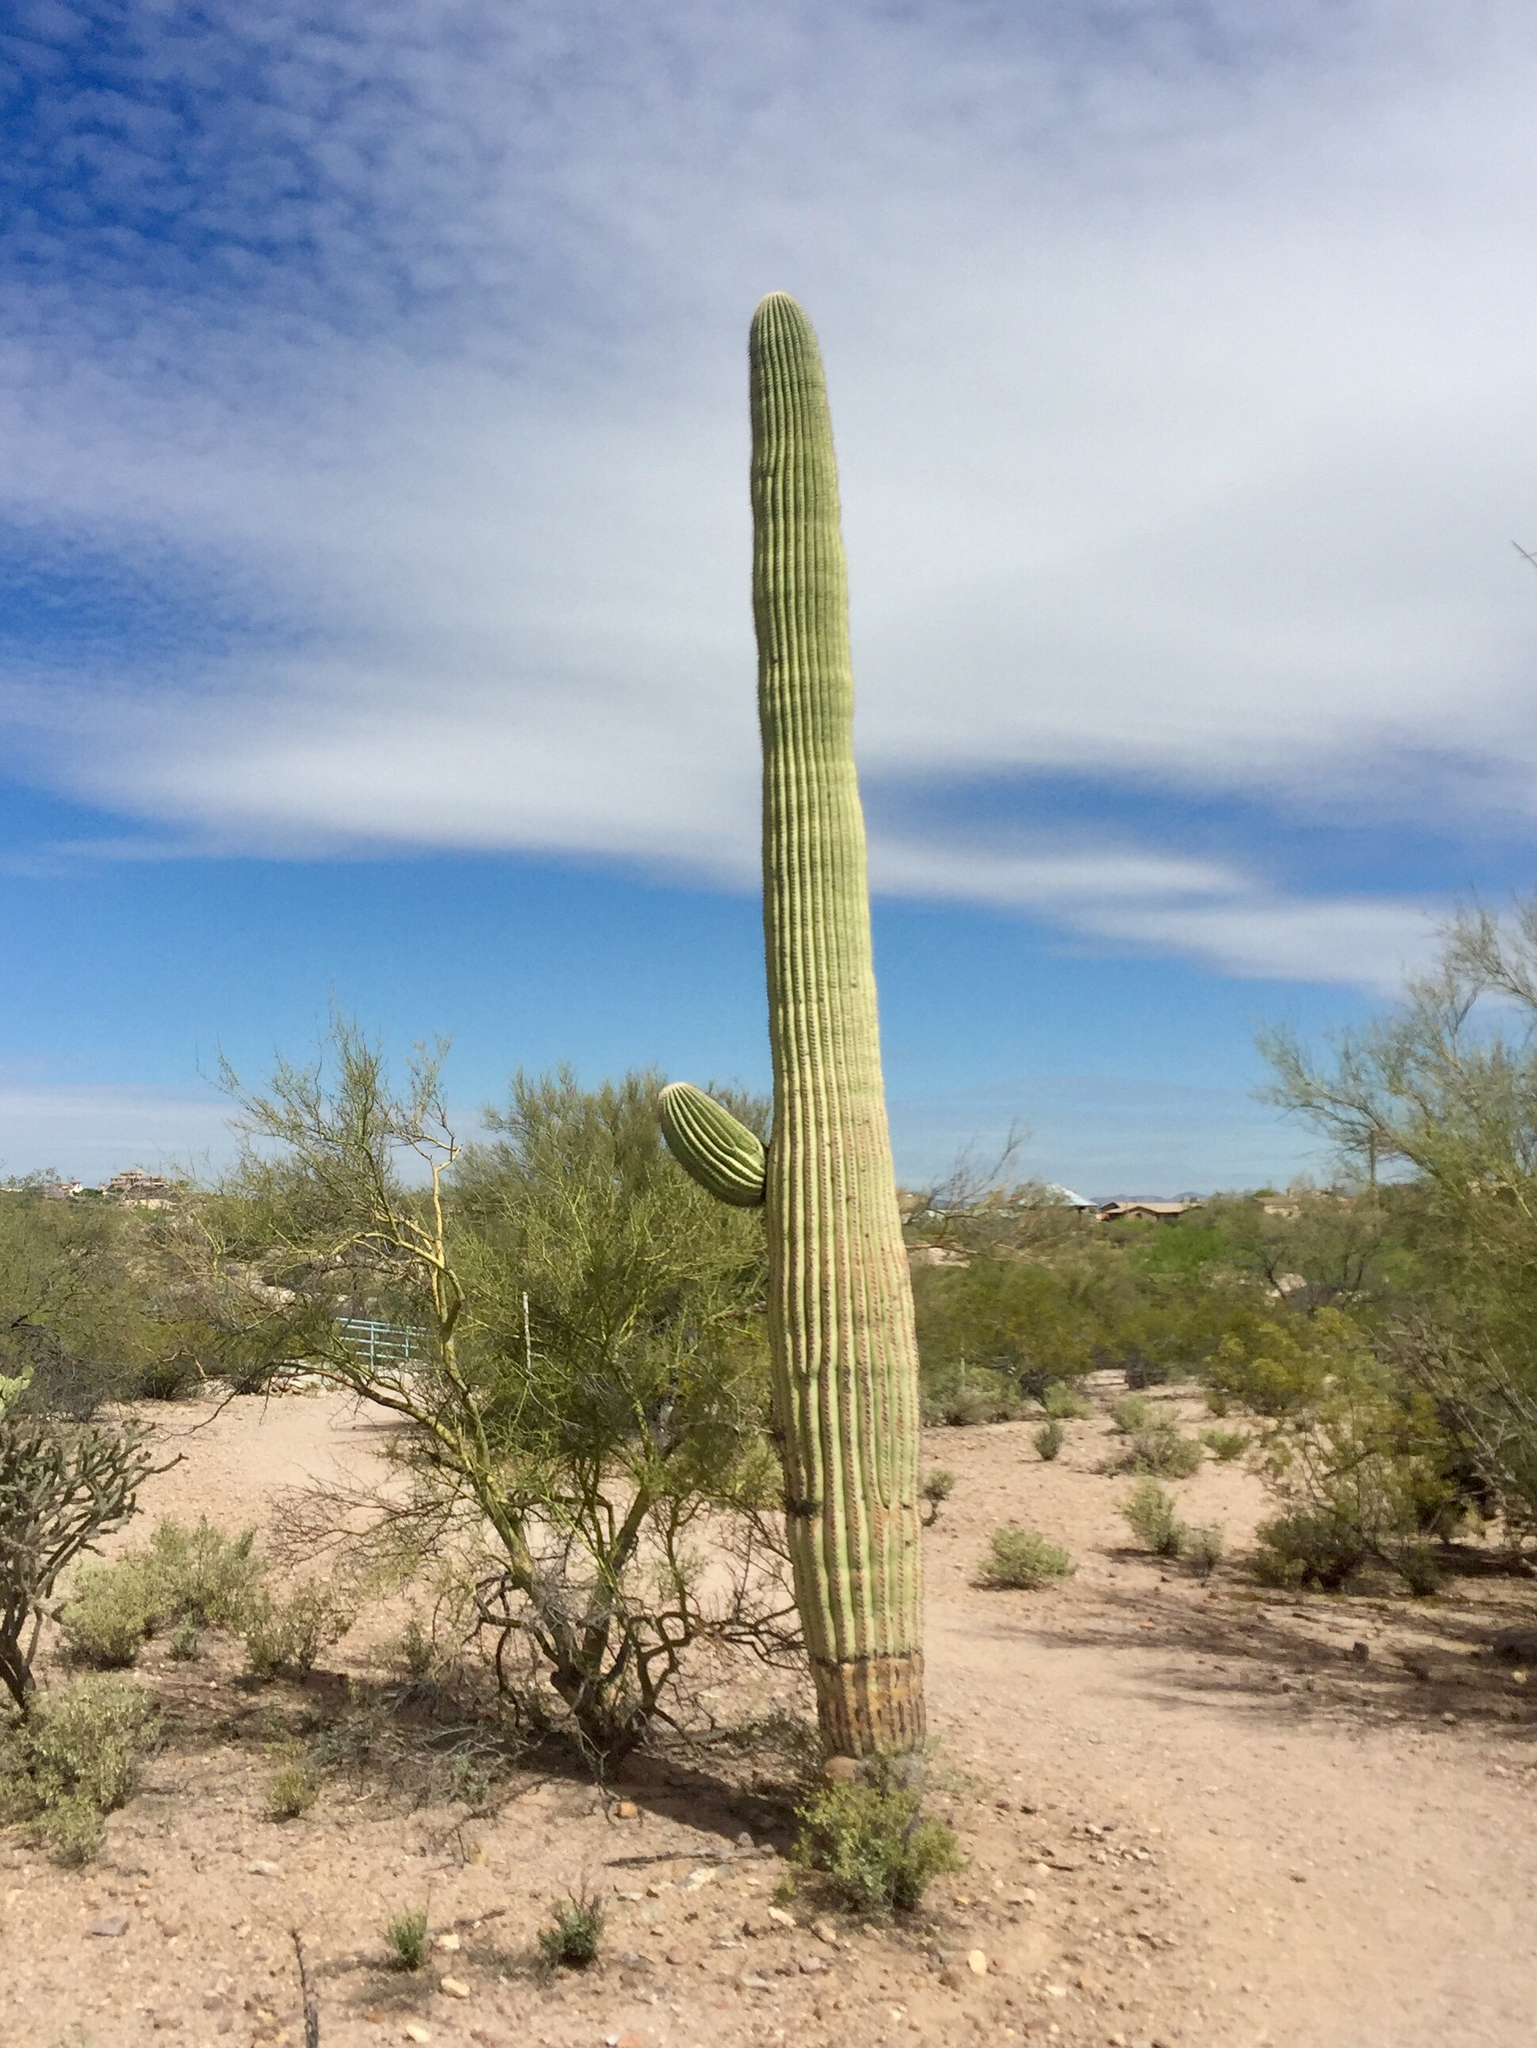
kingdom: Plantae
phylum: Tracheophyta
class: Magnoliopsida
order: Caryophyllales
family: Cactaceae
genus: Carnegiea
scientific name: Carnegiea gigantea
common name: Saguaro
